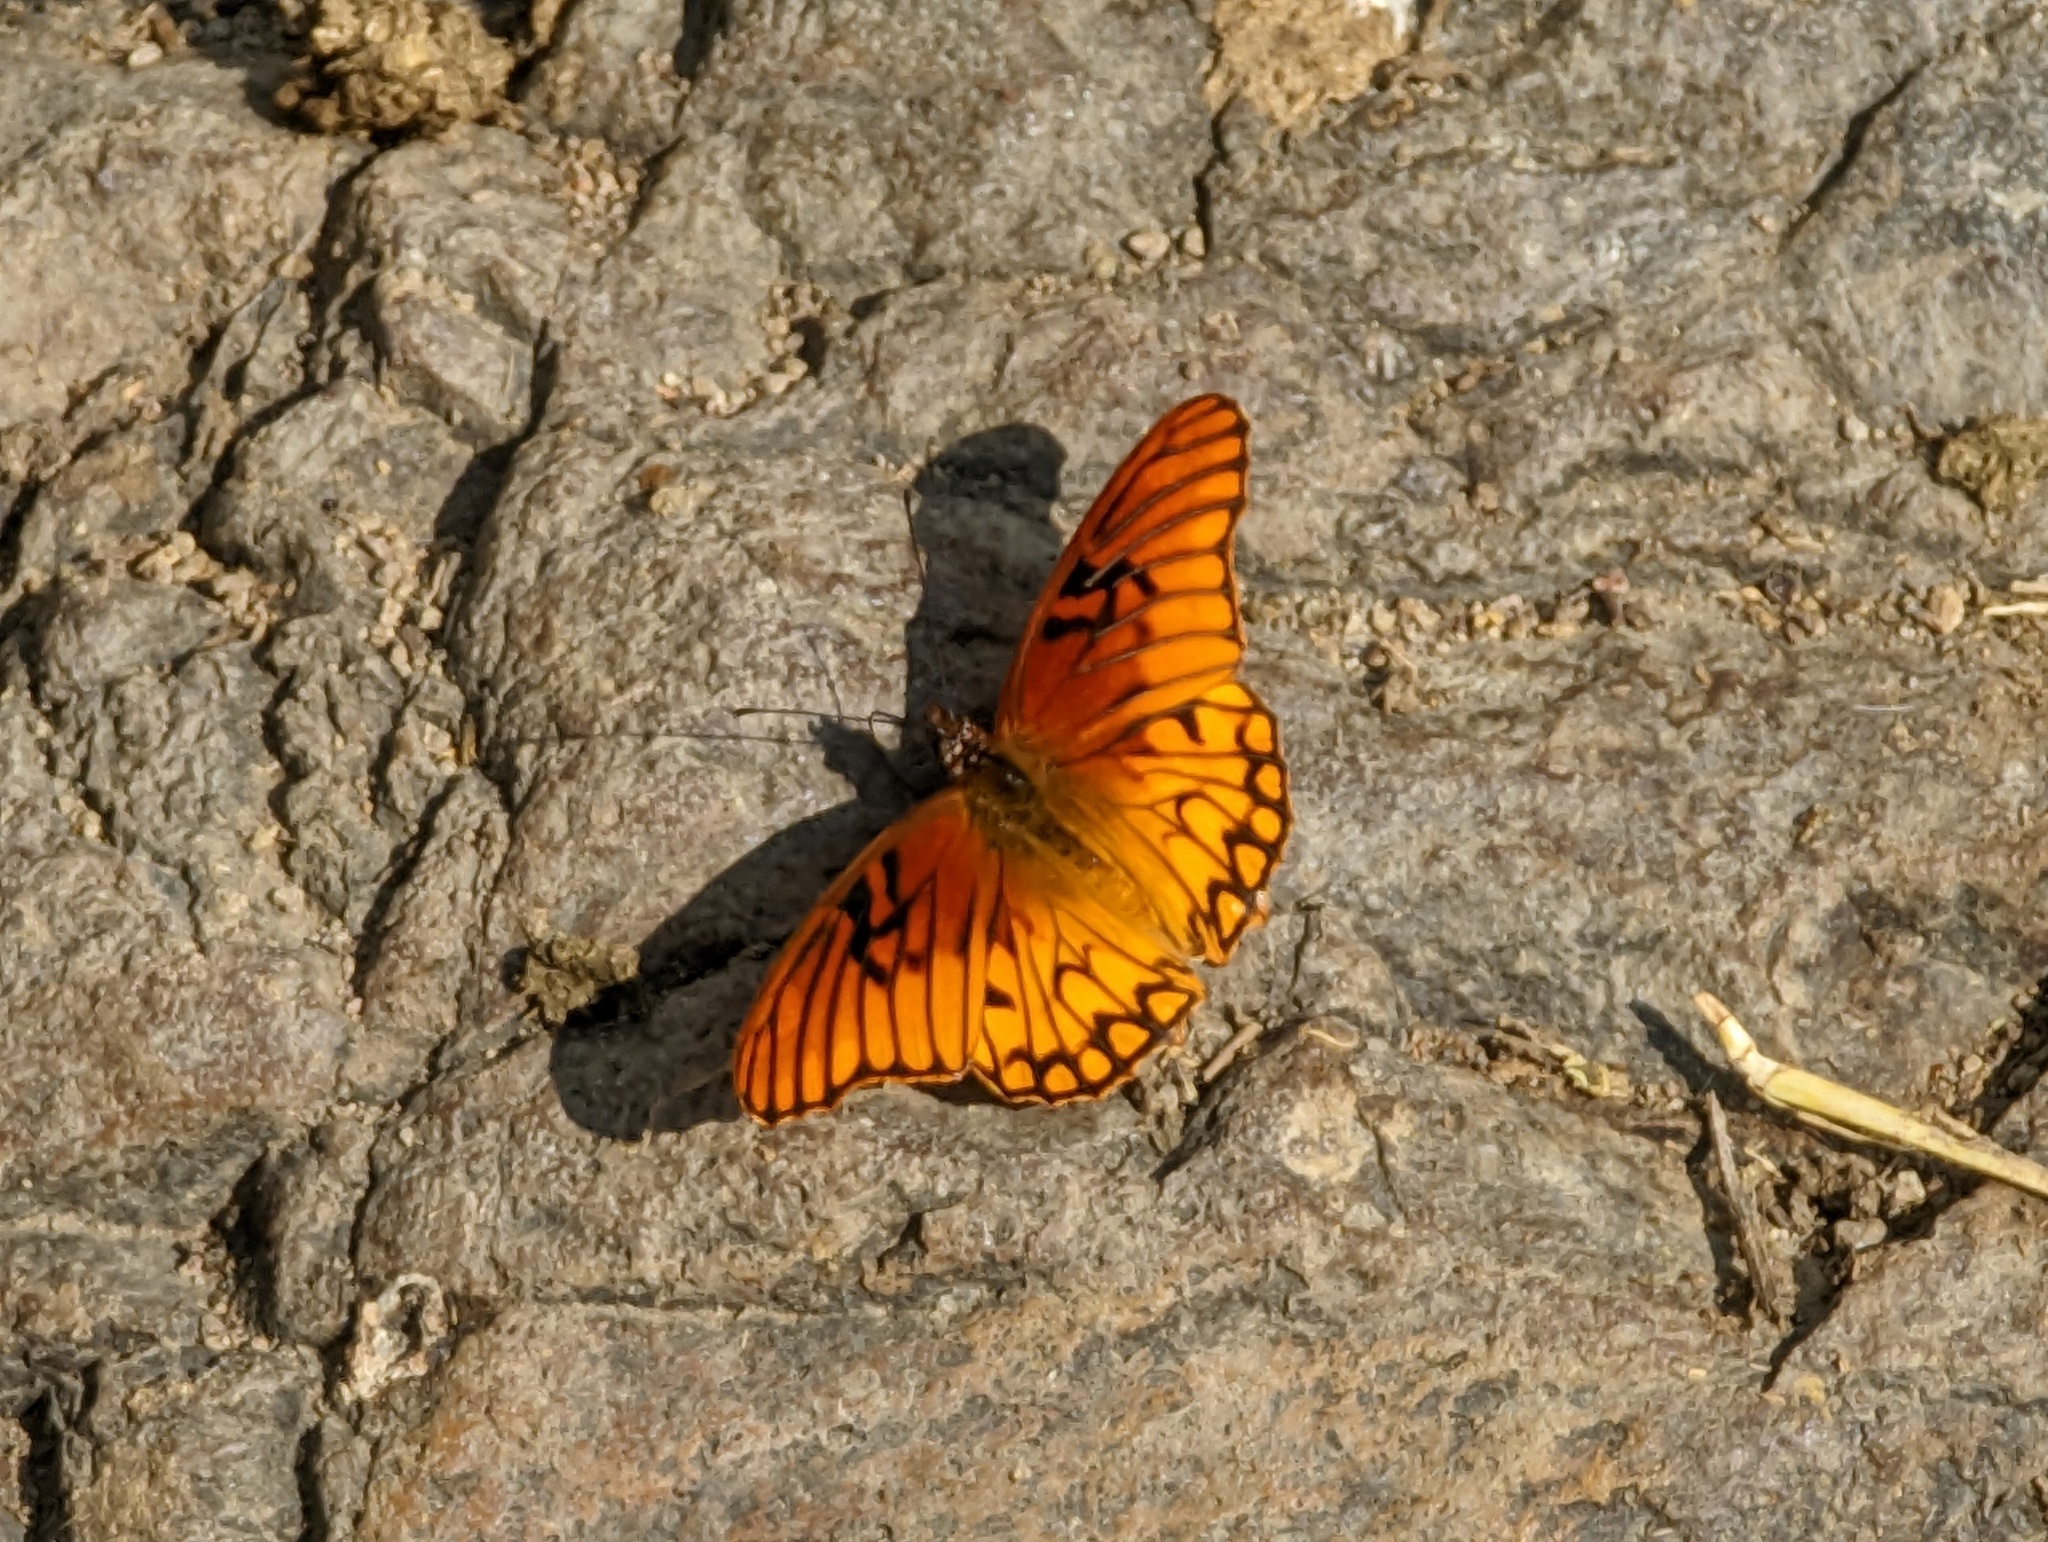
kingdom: Animalia
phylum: Arthropoda
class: Insecta
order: Lepidoptera
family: Nymphalidae
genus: Dione
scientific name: Dione moneta
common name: Mexican silverspot
